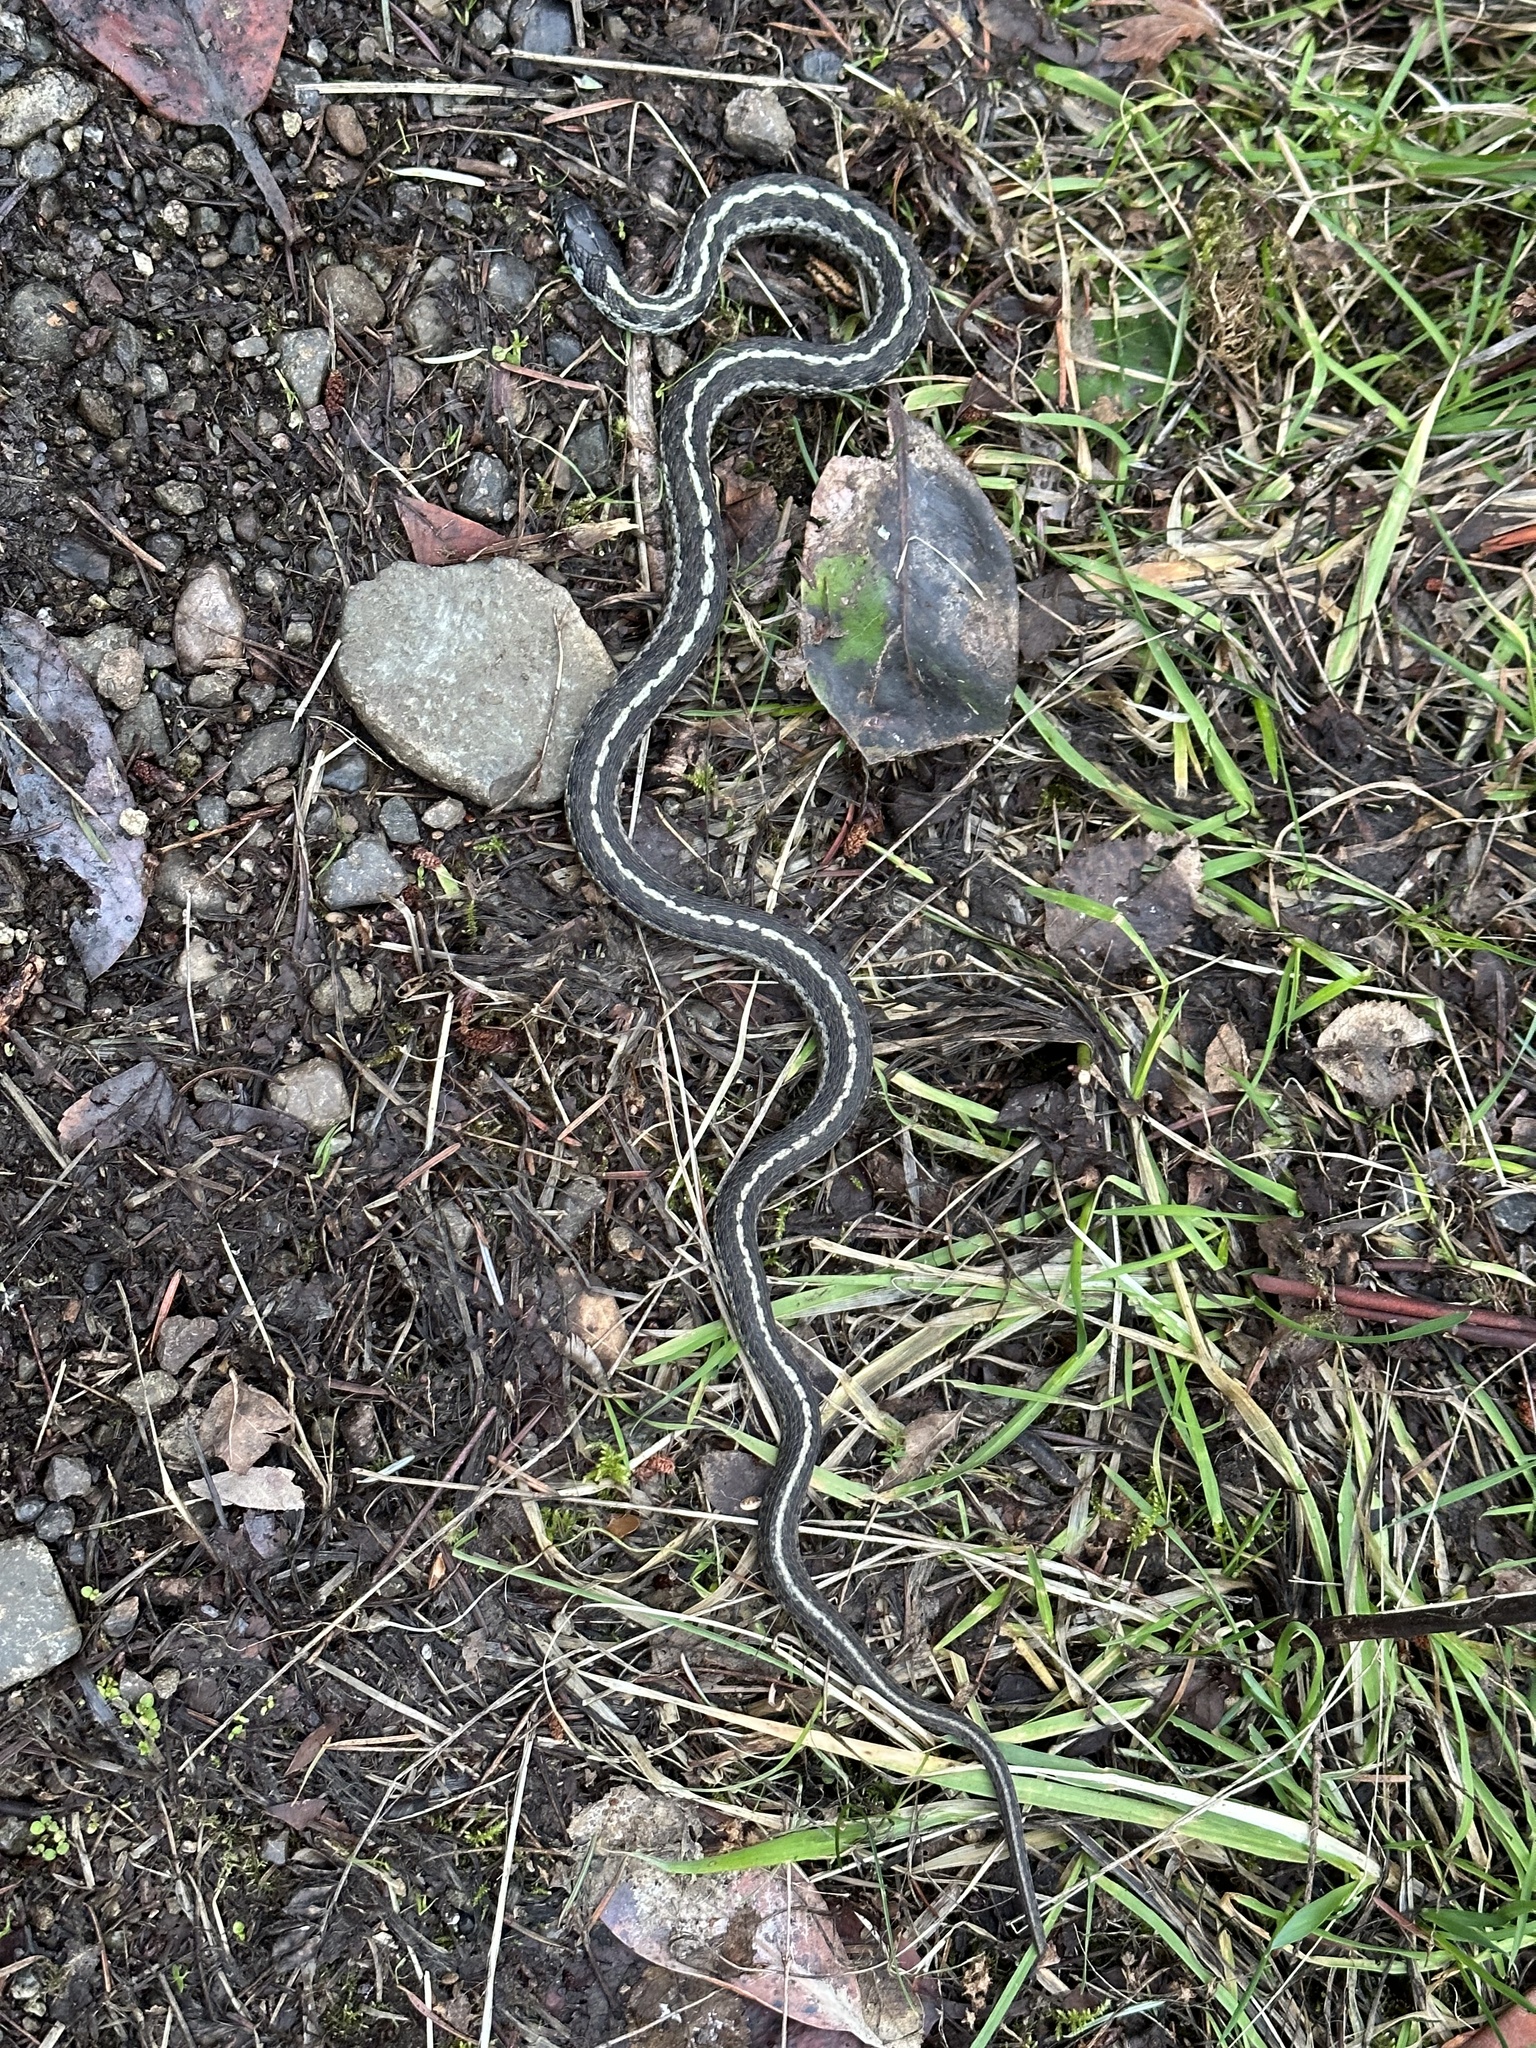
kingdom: Animalia
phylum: Chordata
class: Squamata
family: Colubridae
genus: Thamnophis
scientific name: Thamnophis elegans
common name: Western terrestrial garter snake
